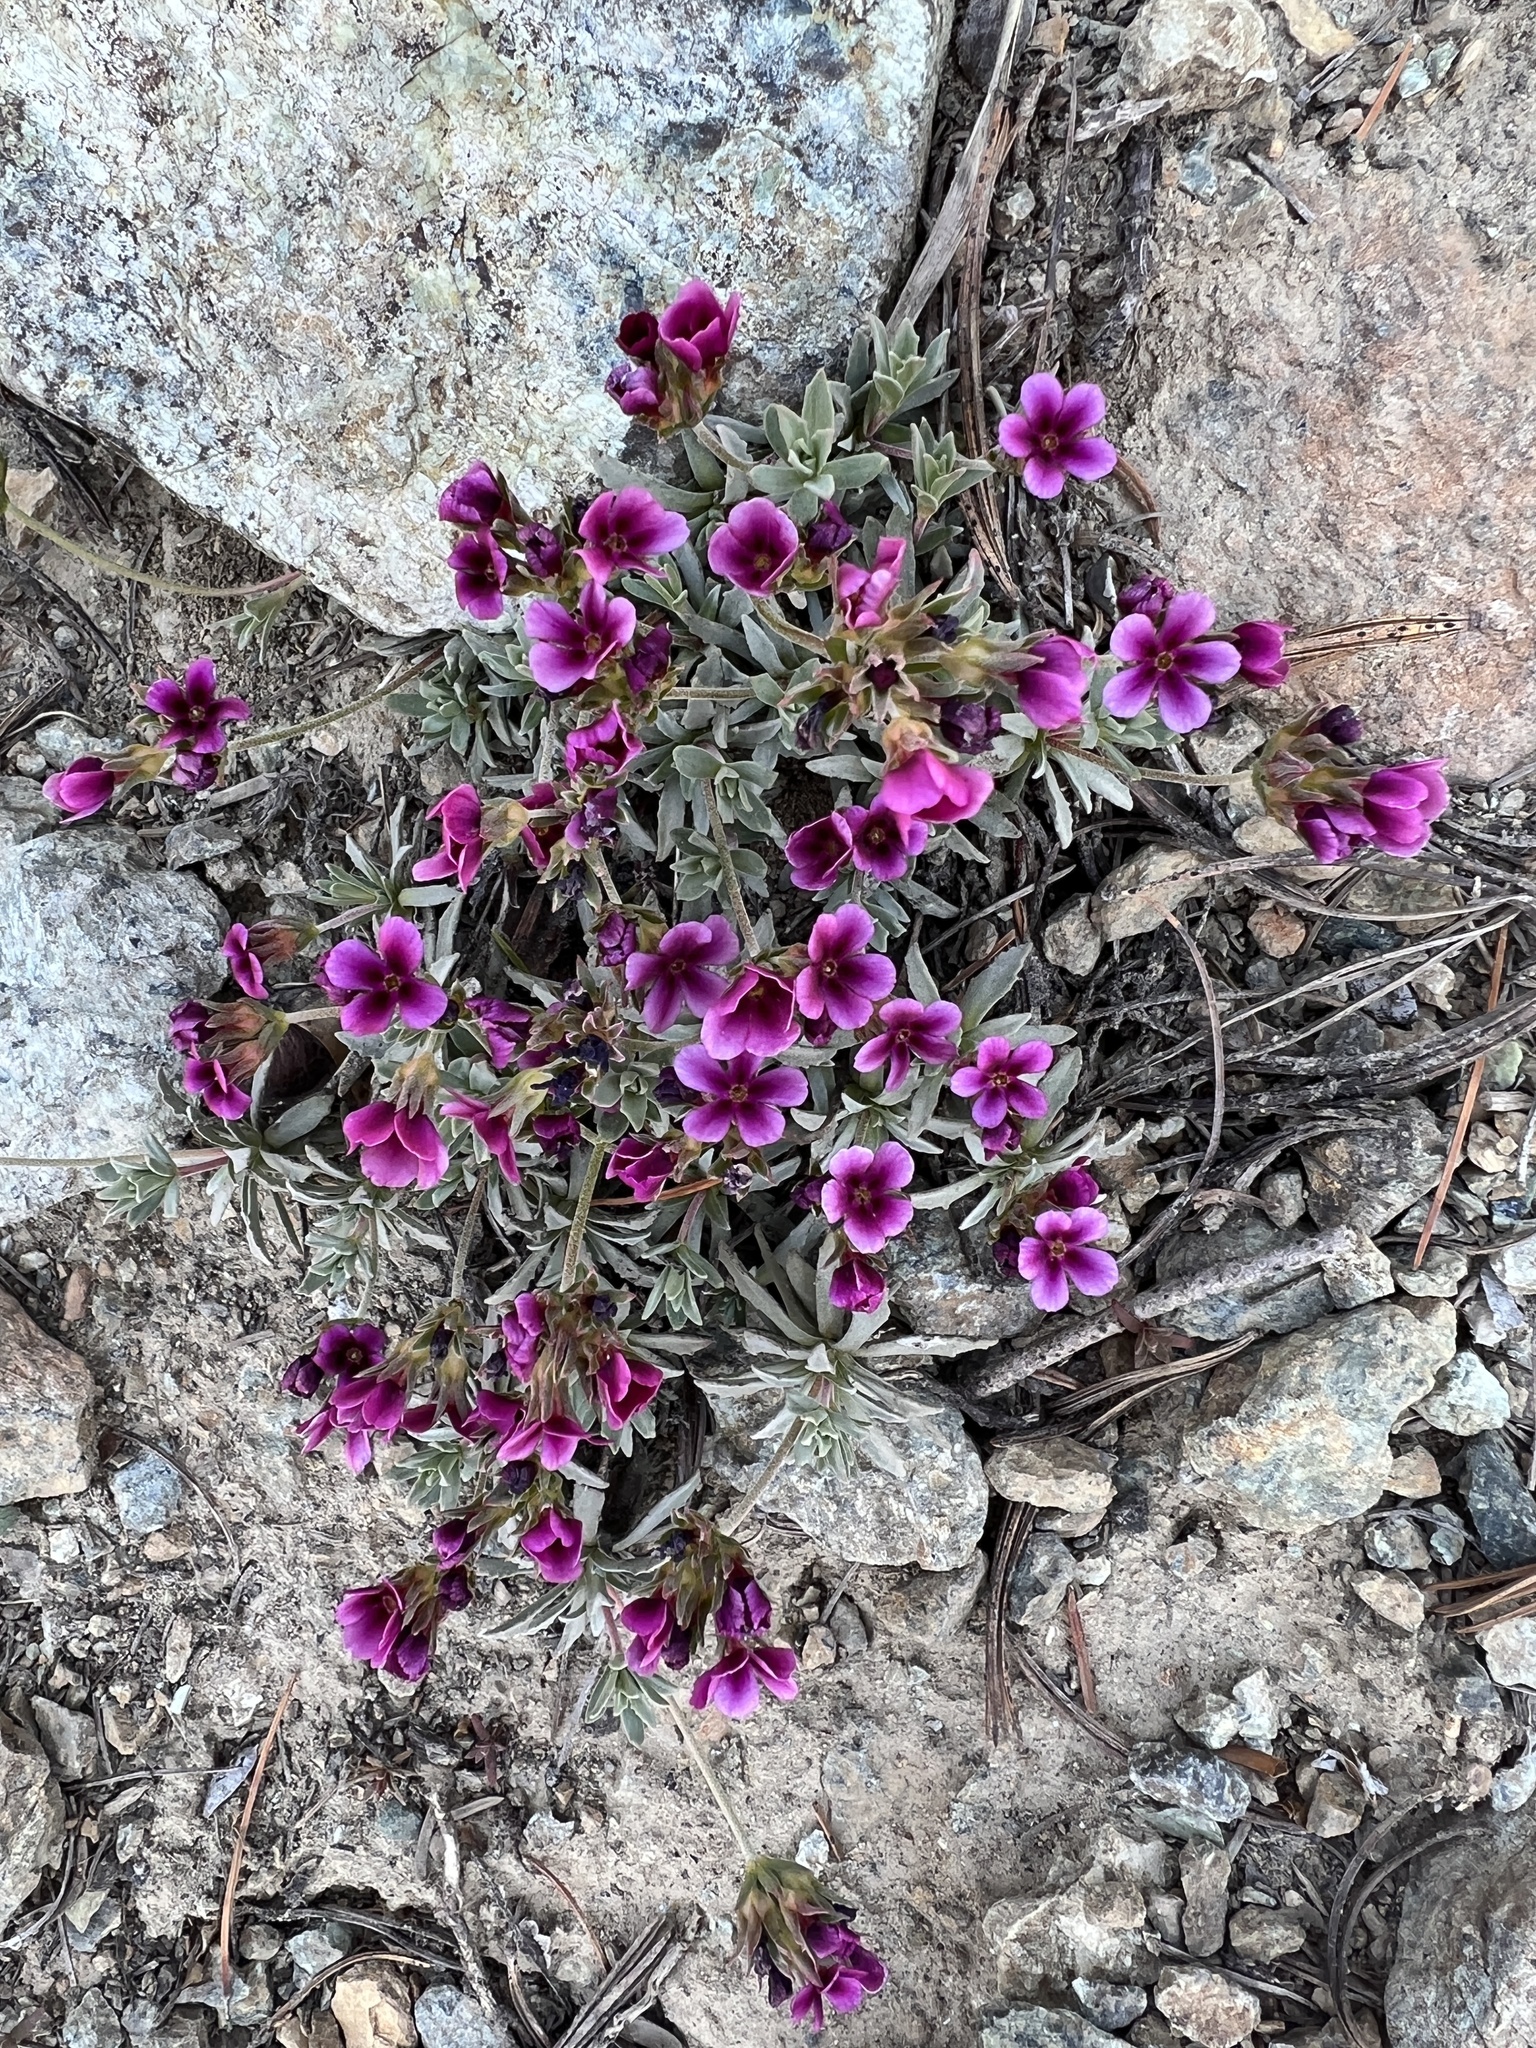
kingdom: Plantae
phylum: Tracheophyta
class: Magnoliopsida
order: Ericales
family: Primulaceae
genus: Androsace
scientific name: Androsace nivalis
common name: Snow dwarf-primrose
